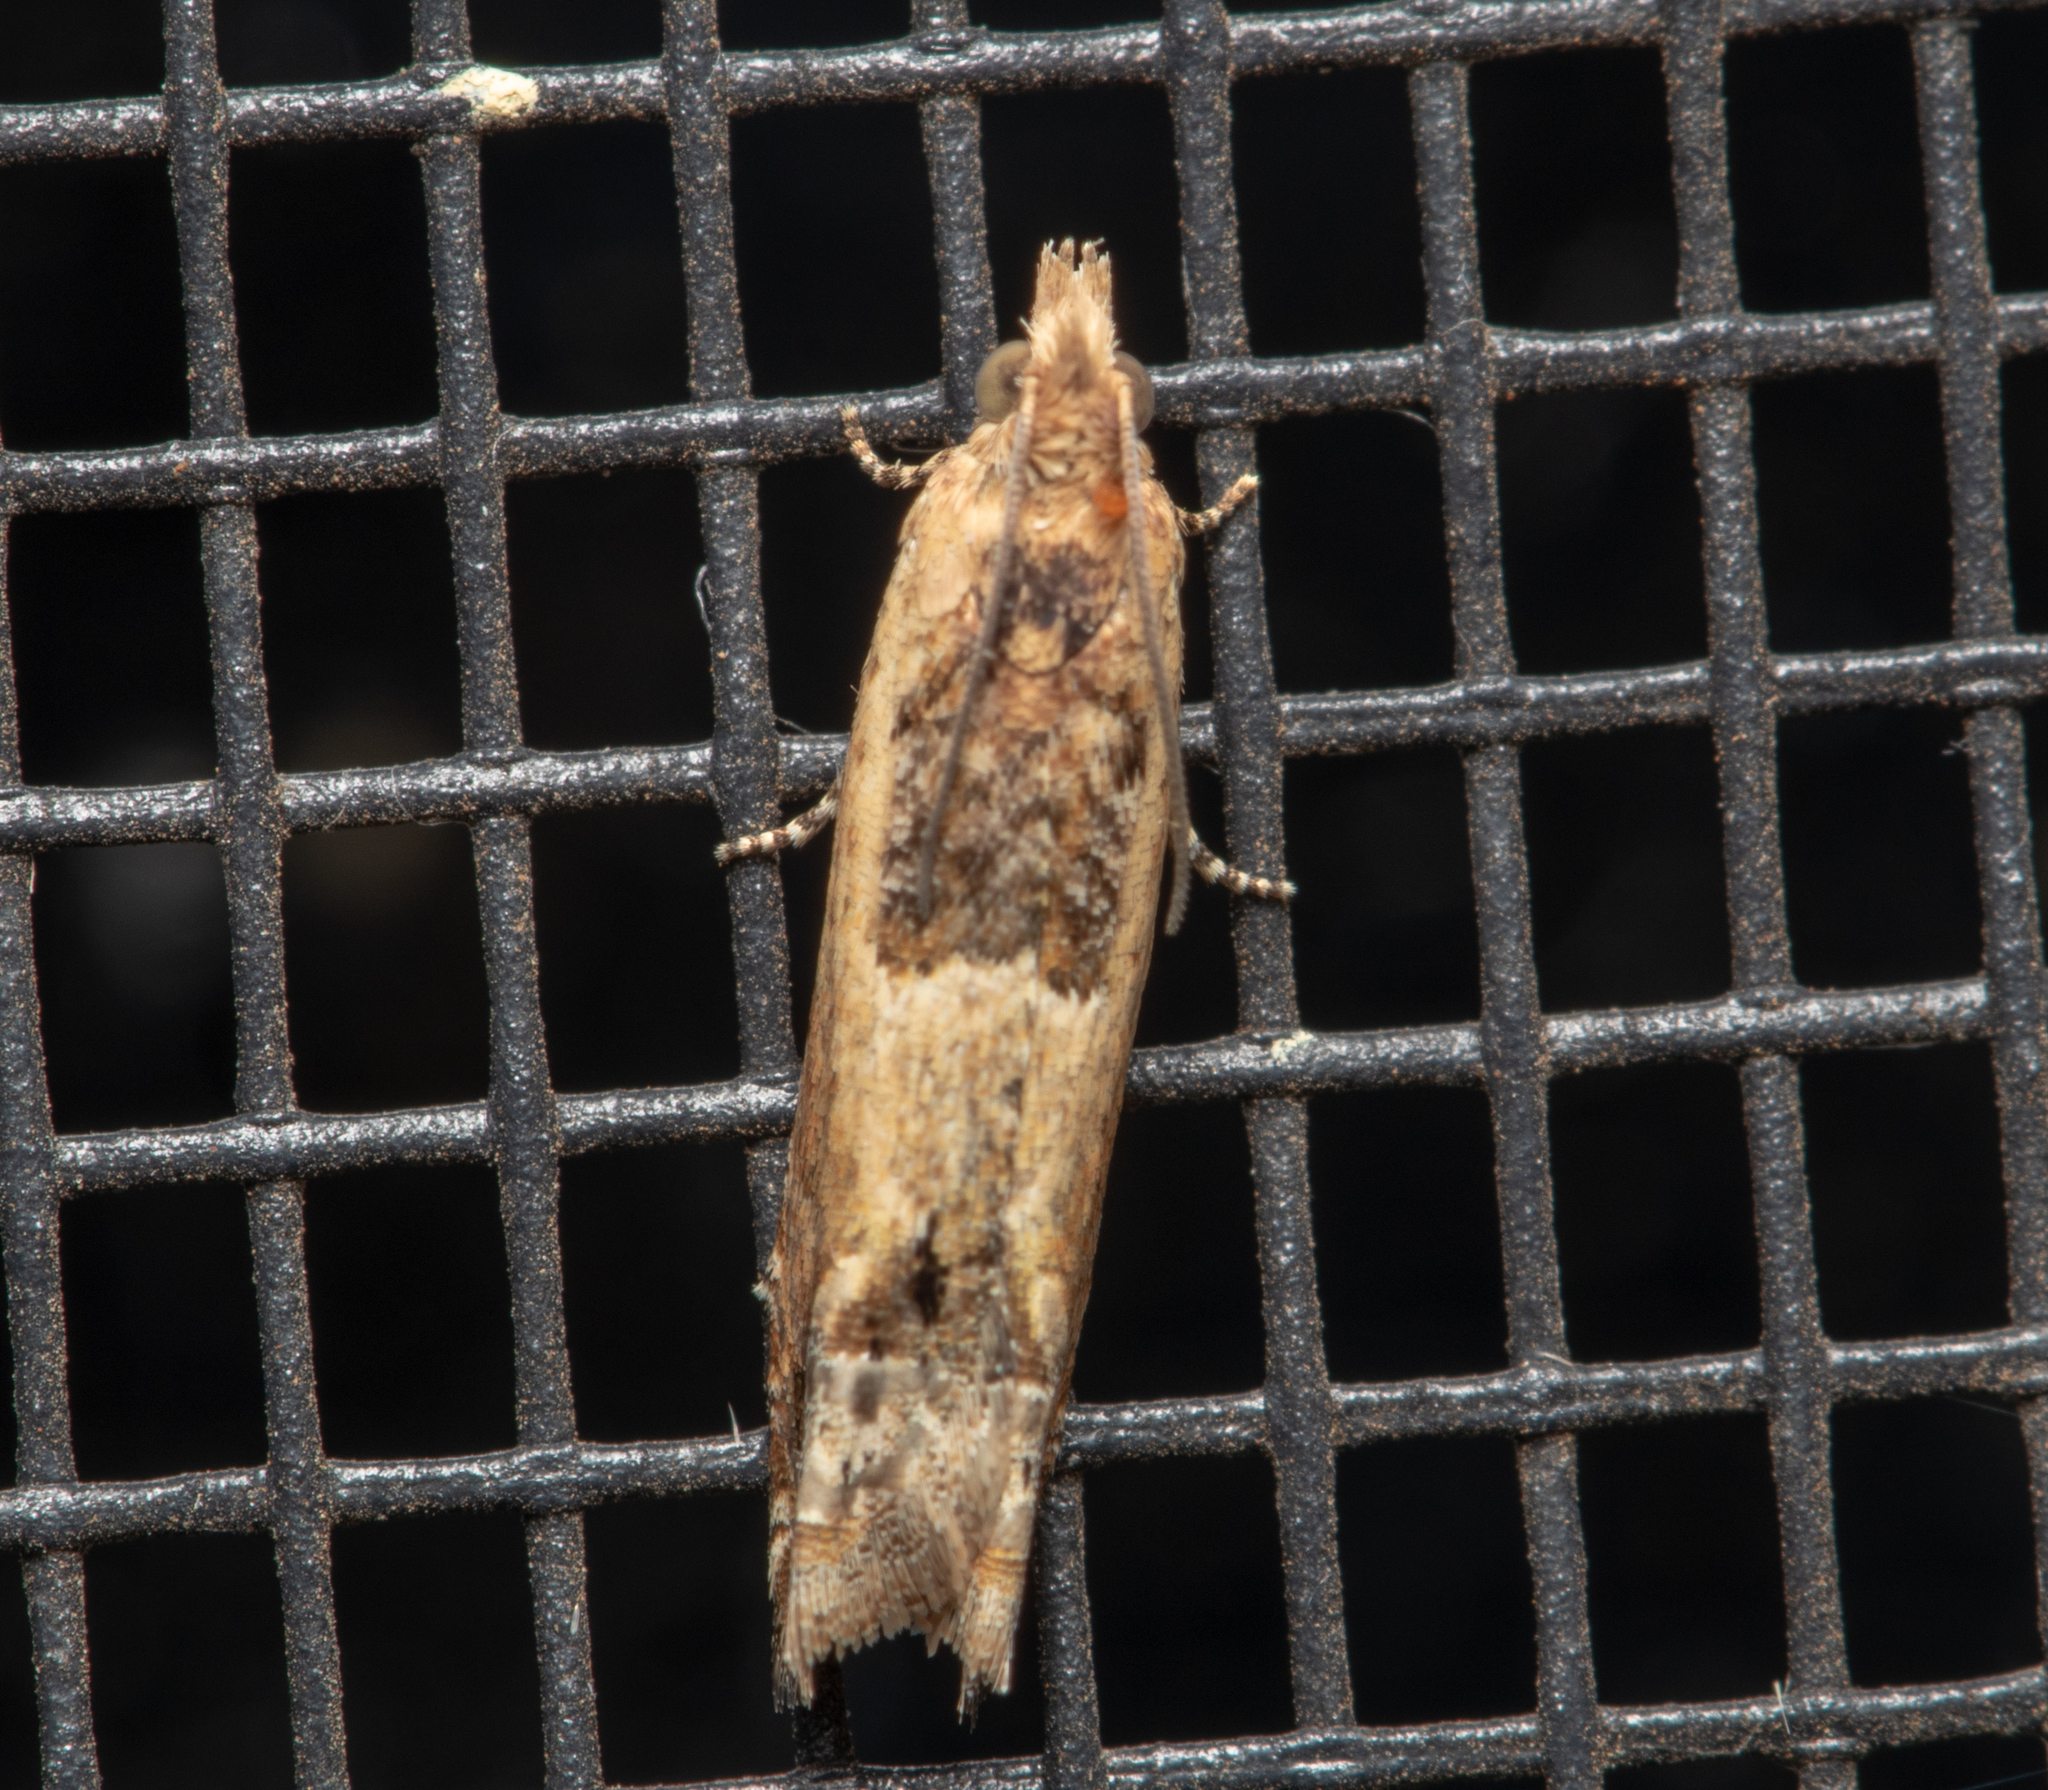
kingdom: Animalia
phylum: Arthropoda
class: Insecta
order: Lepidoptera
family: Tortricidae
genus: Crocidosema
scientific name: Crocidosema plebejana
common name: Southern bell
